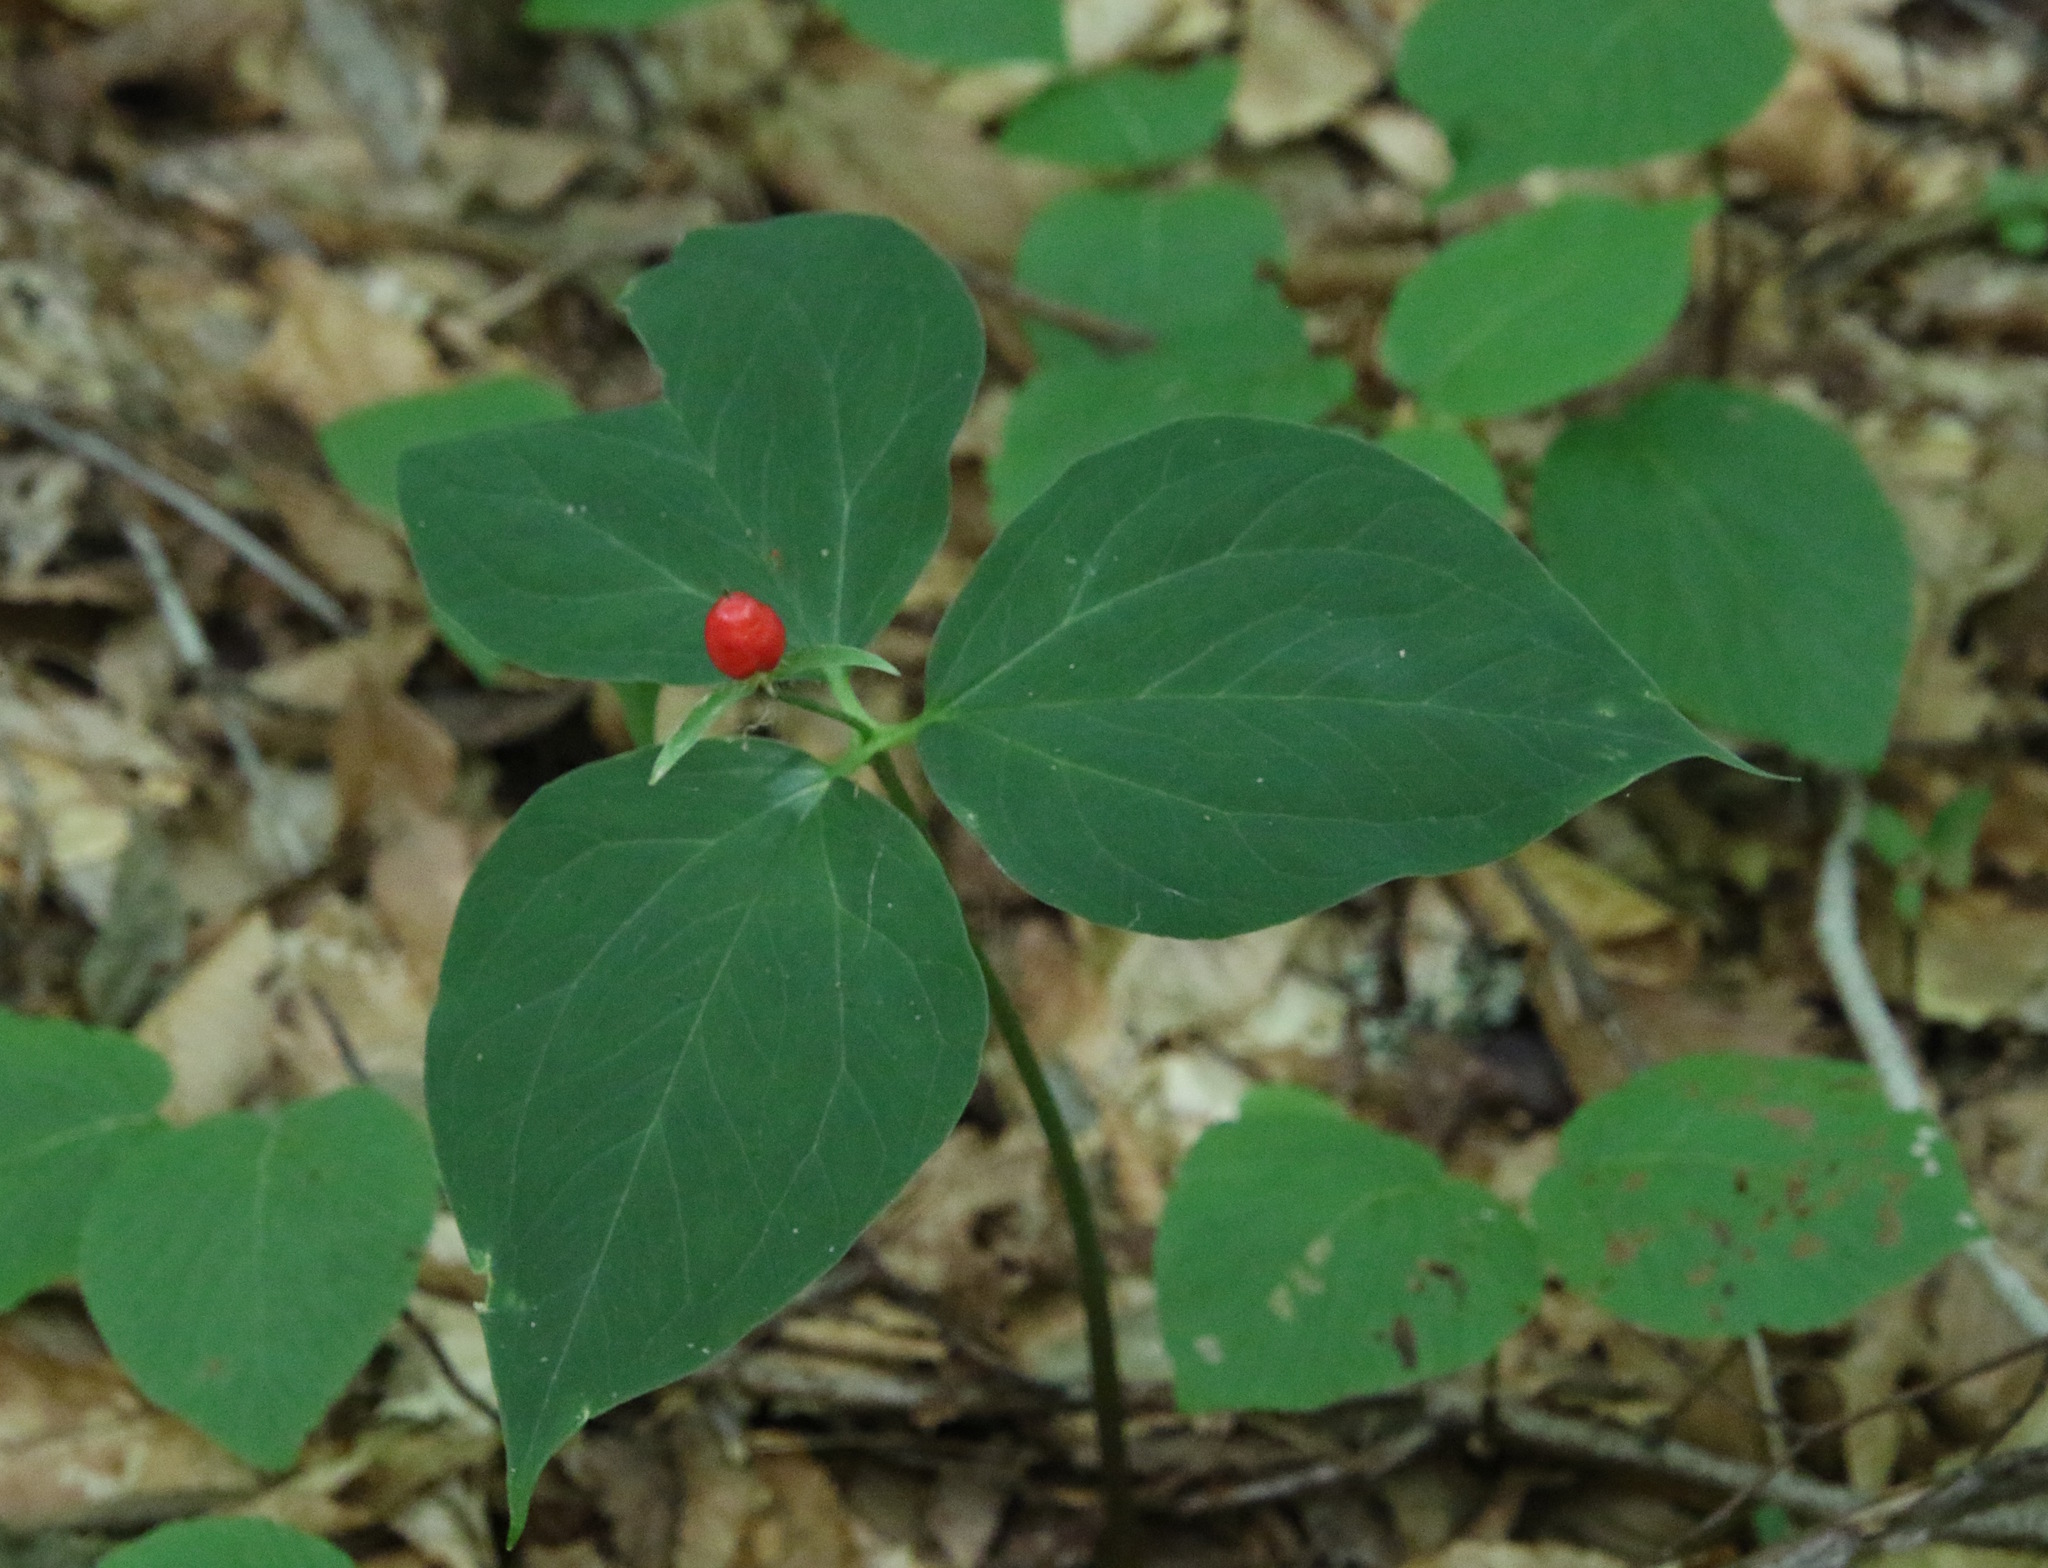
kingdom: Plantae
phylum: Tracheophyta
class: Liliopsida
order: Liliales
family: Melanthiaceae
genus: Trillium
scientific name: Trillium undulatum
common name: Paint trillium
